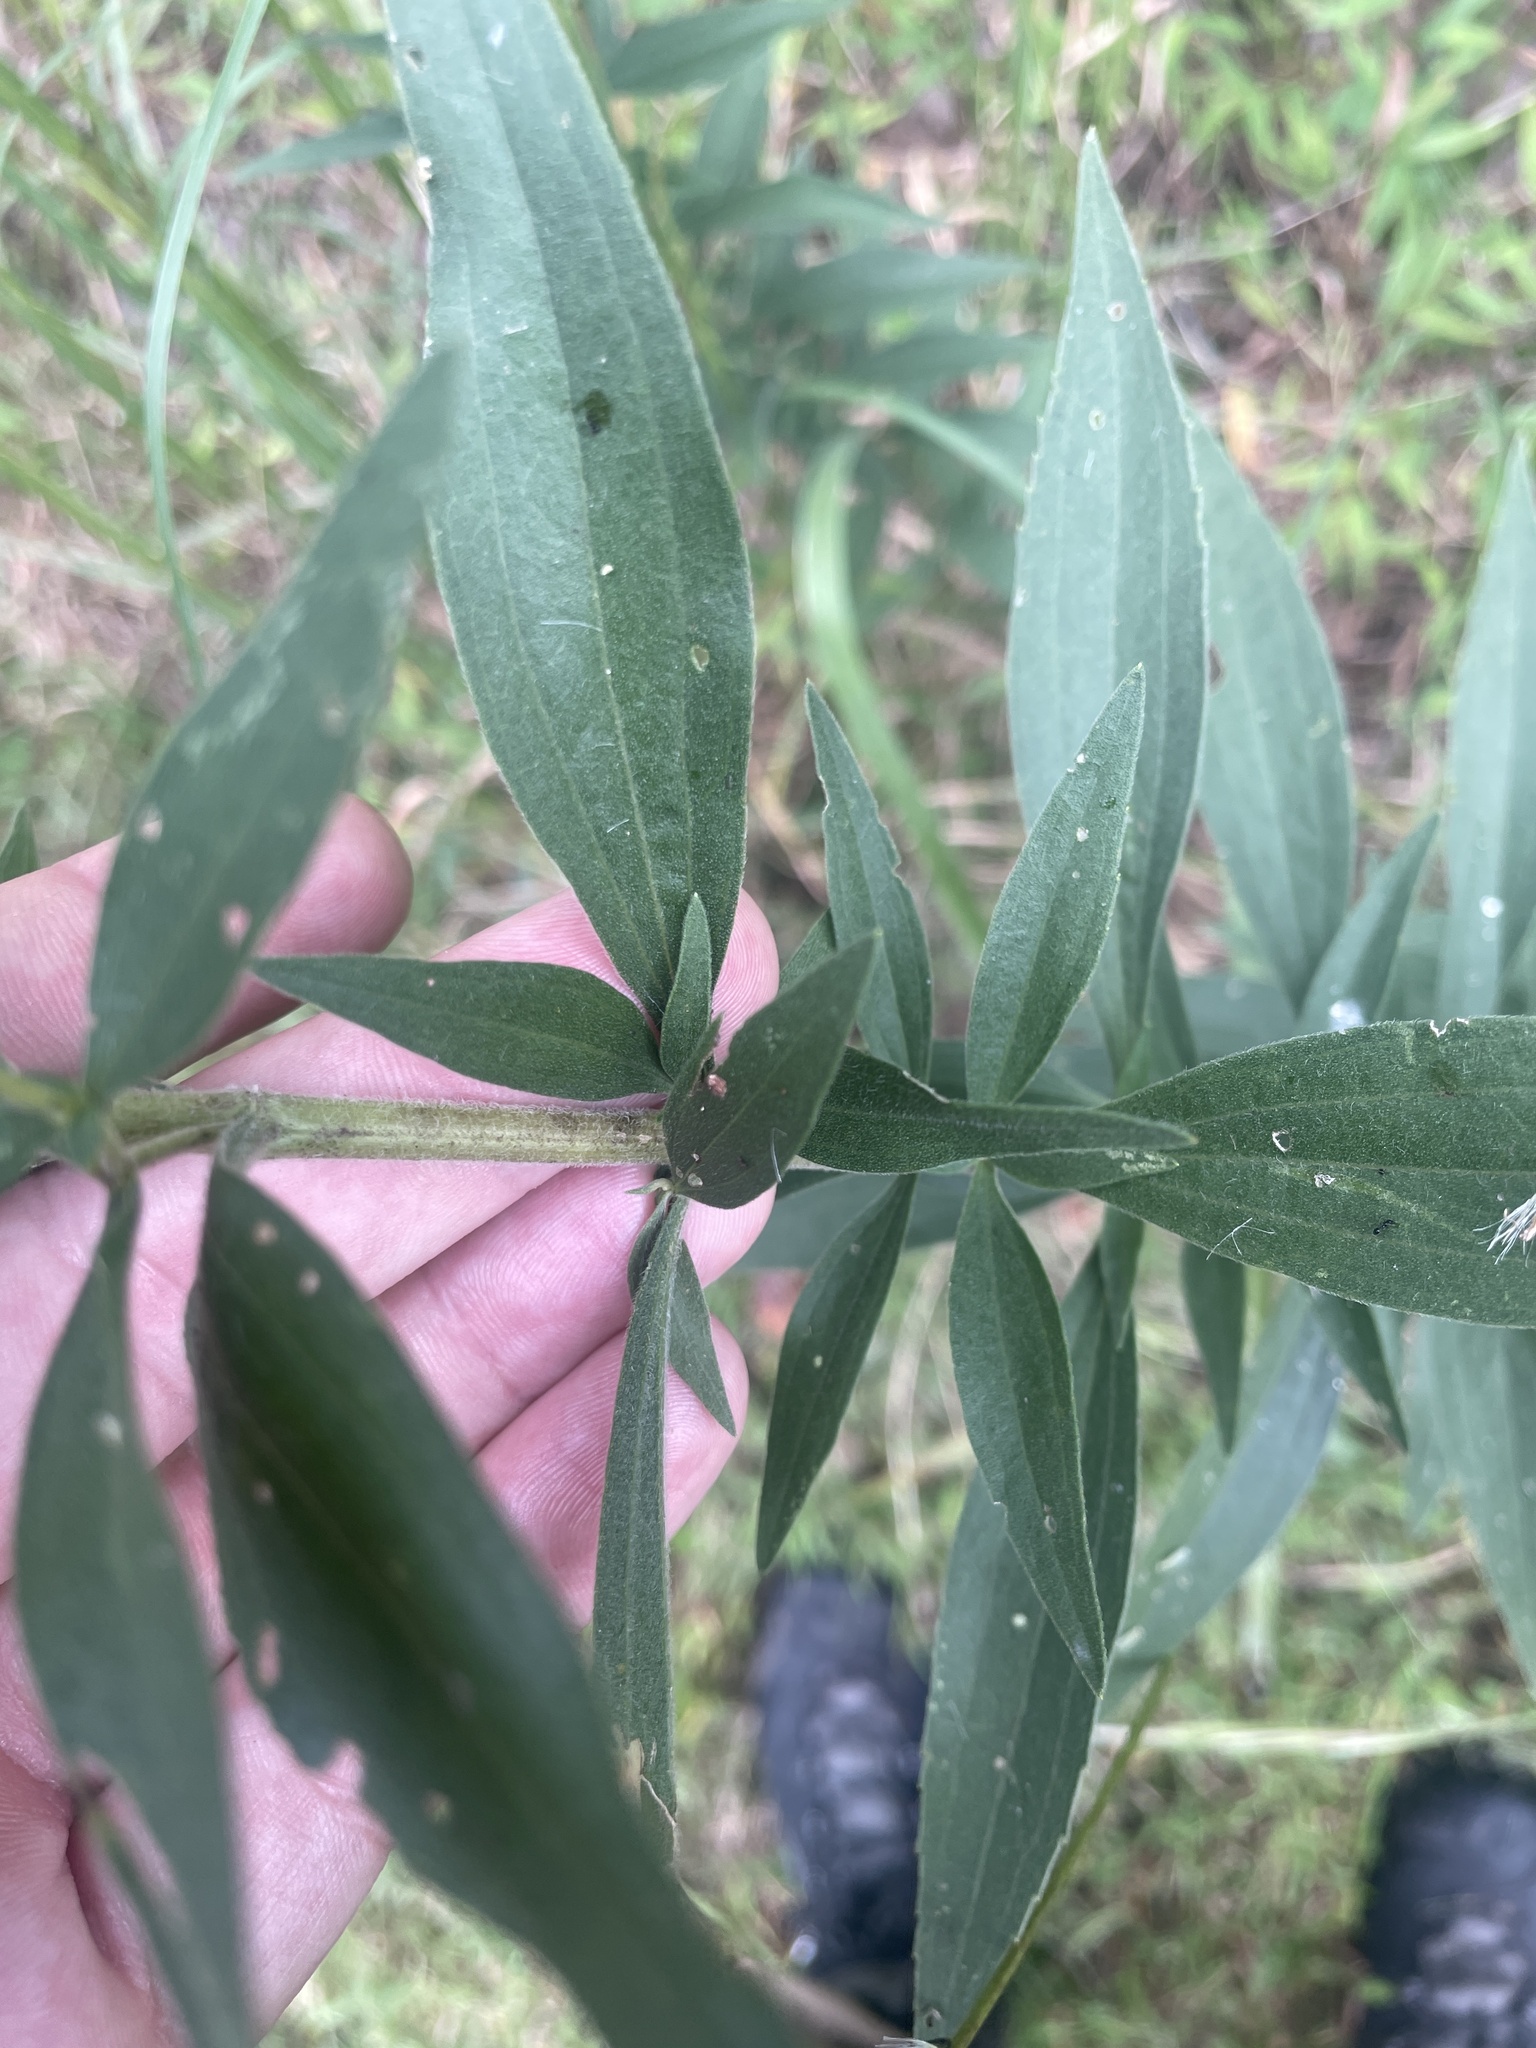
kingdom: Plantae
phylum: Tracheophyta
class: Magnoliopsida
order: Asterales
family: Asteraceae
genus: Eupatorium
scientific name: Eupatorium altissimum
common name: Tall thoroughwort
